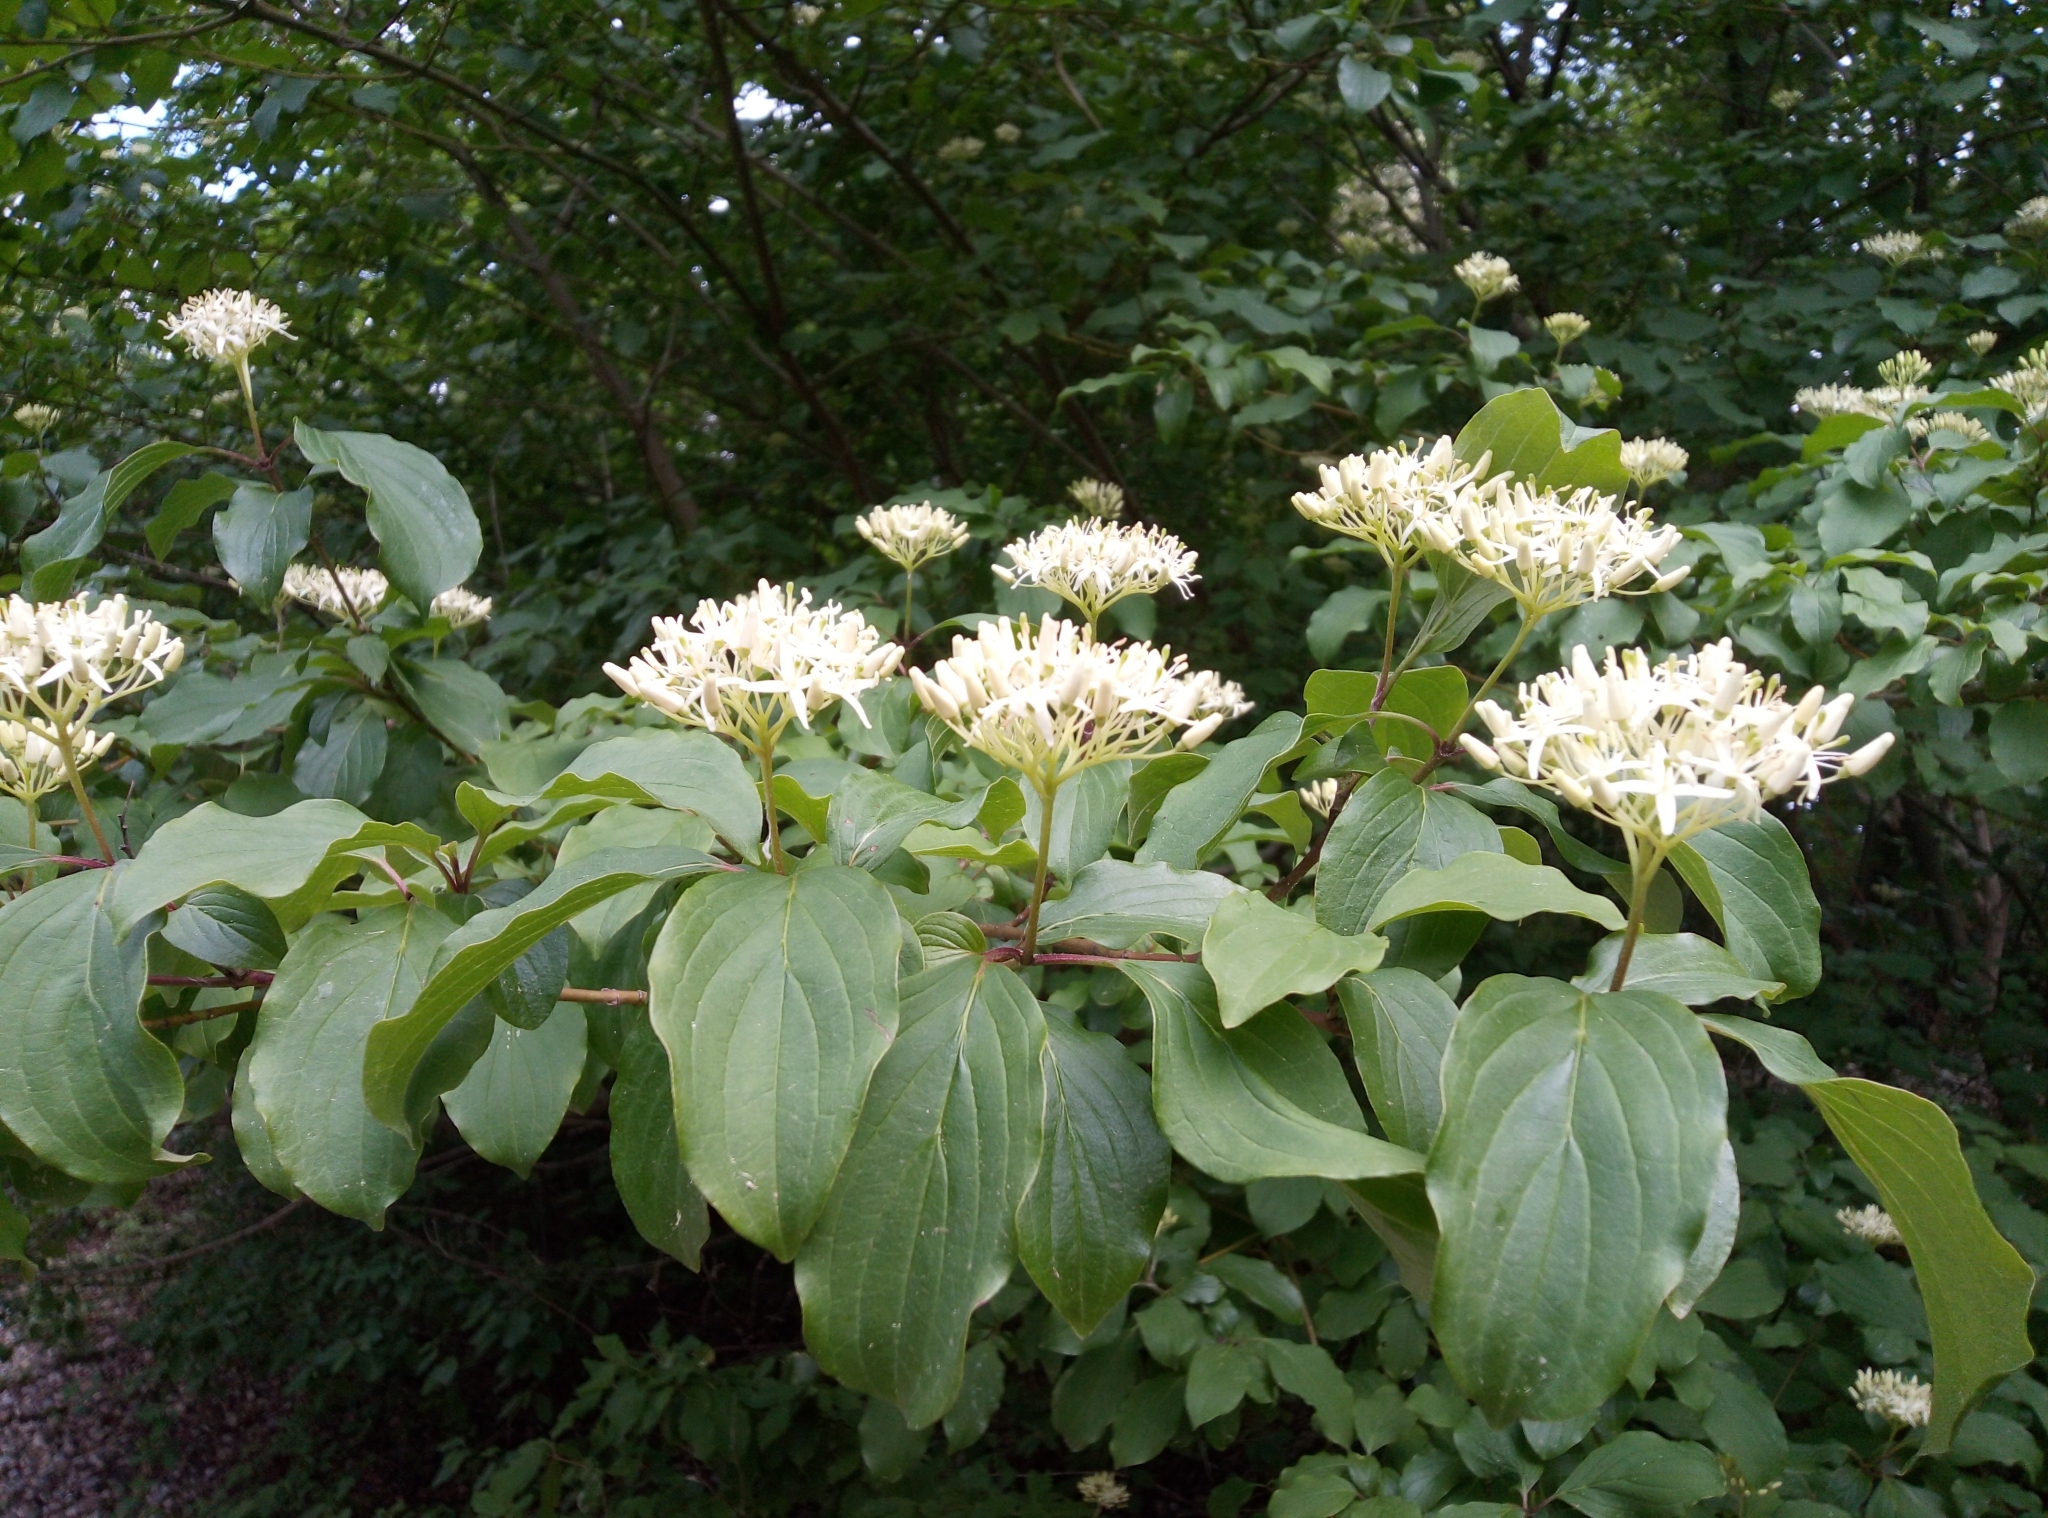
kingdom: Plantae
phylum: Tracheophyta
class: Magnoliopsida
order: Cornales
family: Cornaceae
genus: Cornus
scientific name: Cornus sanguinea
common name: Dogwood
